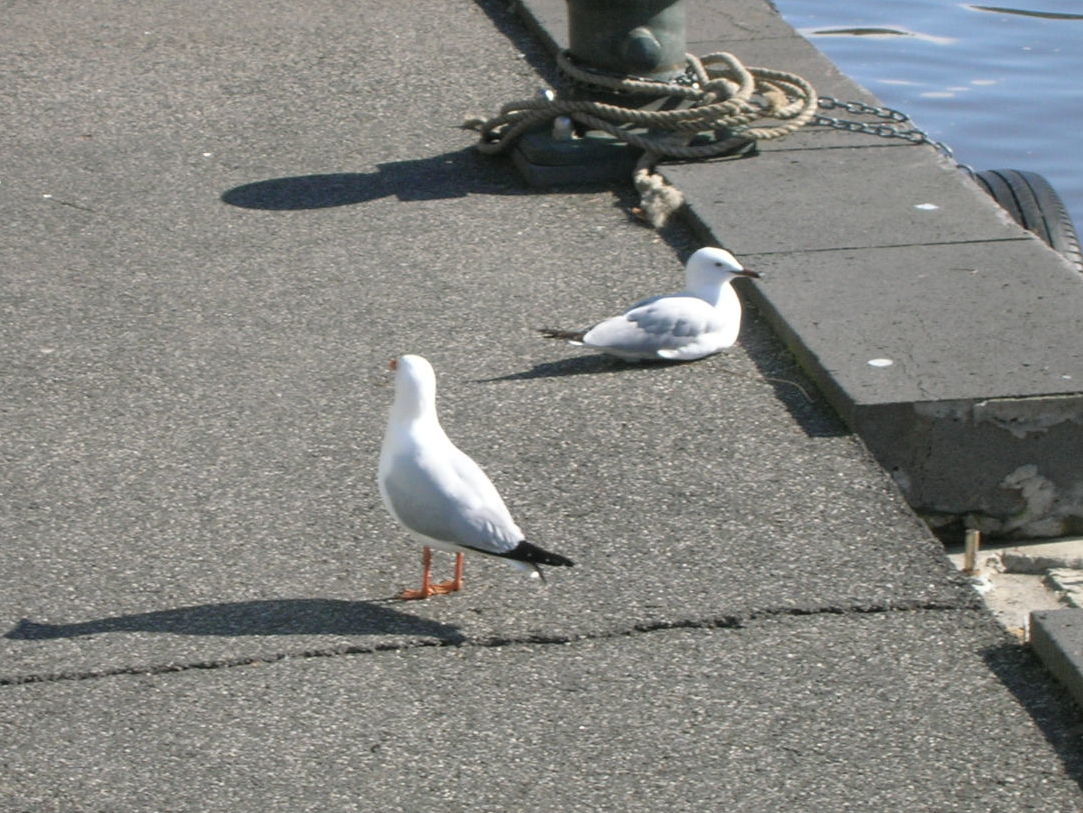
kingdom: Animalia
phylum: Chordata
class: Aves
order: Charadriiformes
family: Laridae
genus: Chroicocephalus
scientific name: Chroicocephalus novaehollandiae
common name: Silver gull
